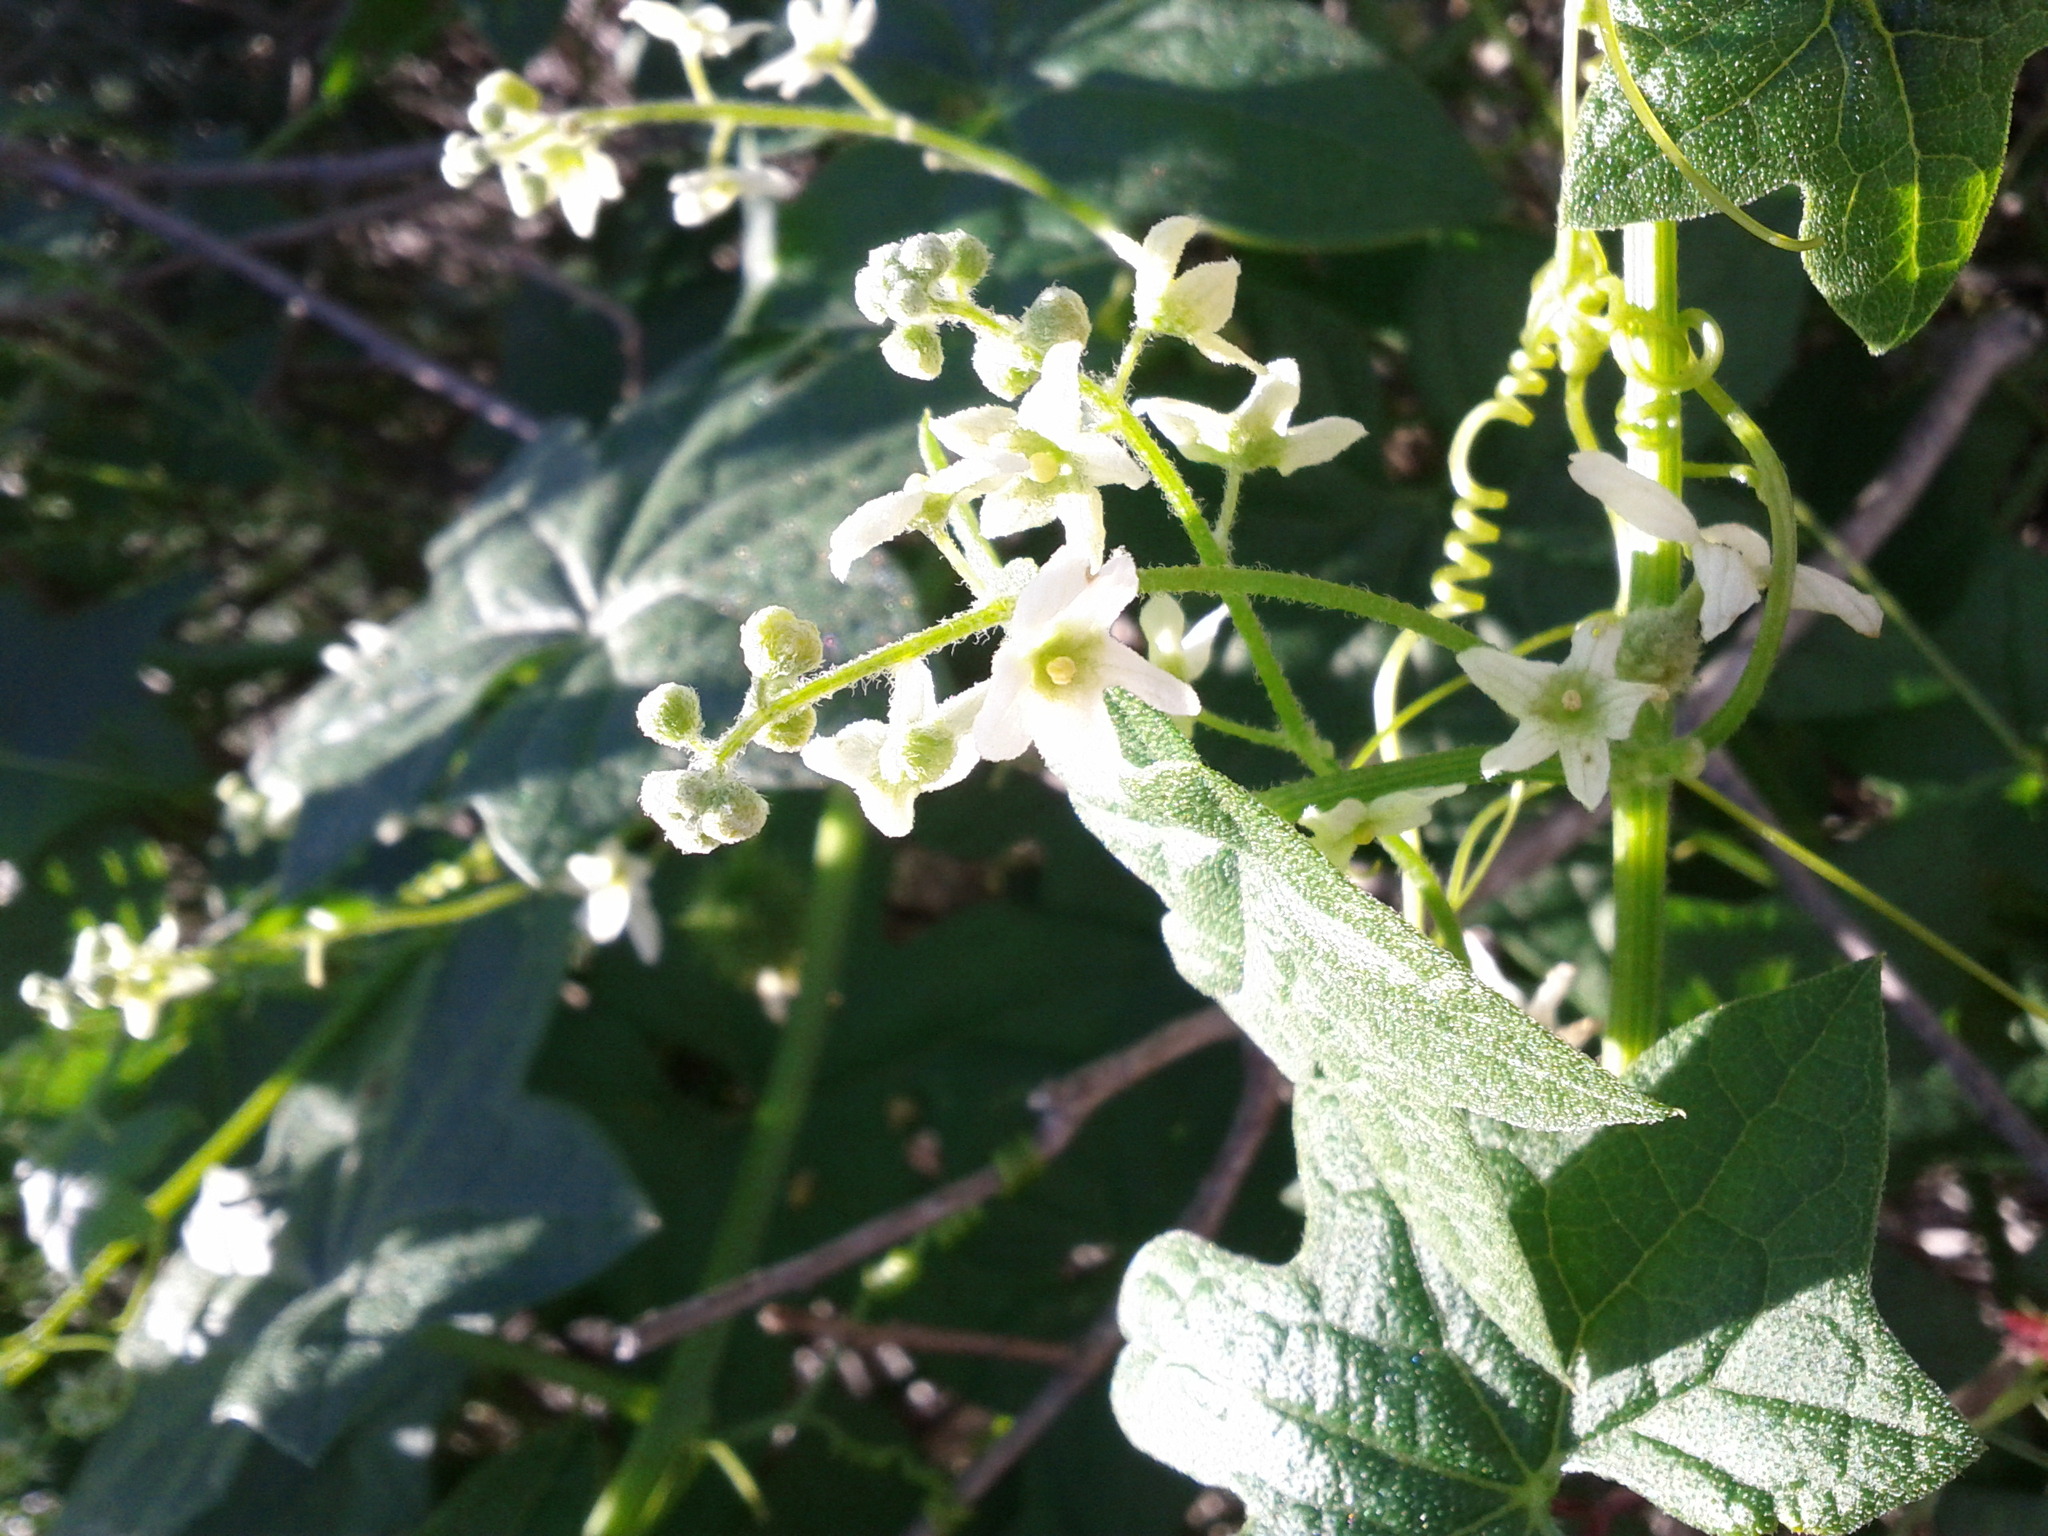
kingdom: Plantae
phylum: Tracheophyta
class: Magnoliopsida
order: Cucurbitales
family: Cucurbitaceae
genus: Marah
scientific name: Marah fabacea
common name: California manroot
